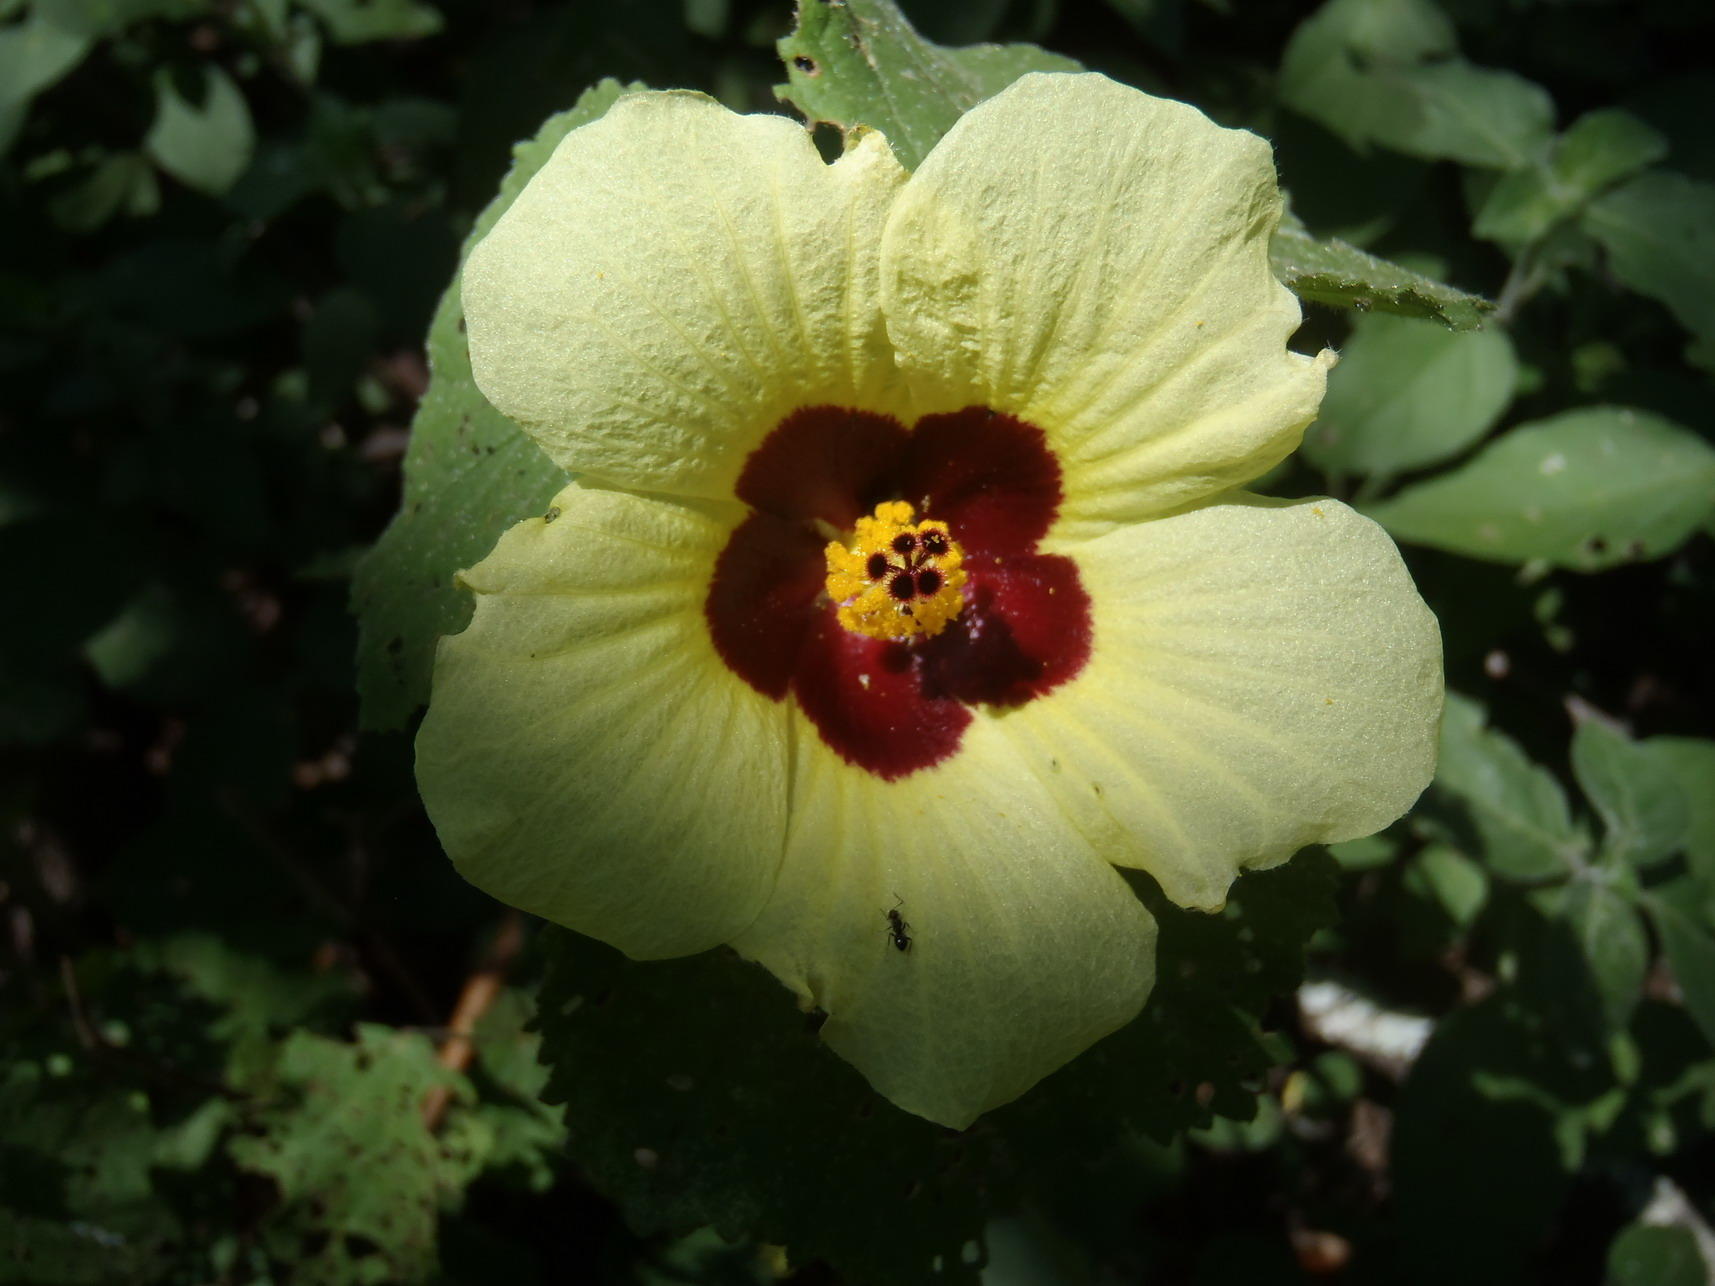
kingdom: Plantae
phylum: Tracheophyta
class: Magnoliopsida
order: Malvales
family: Malvaceae
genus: Hibiscus
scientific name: Hibiscus calyphyllus
